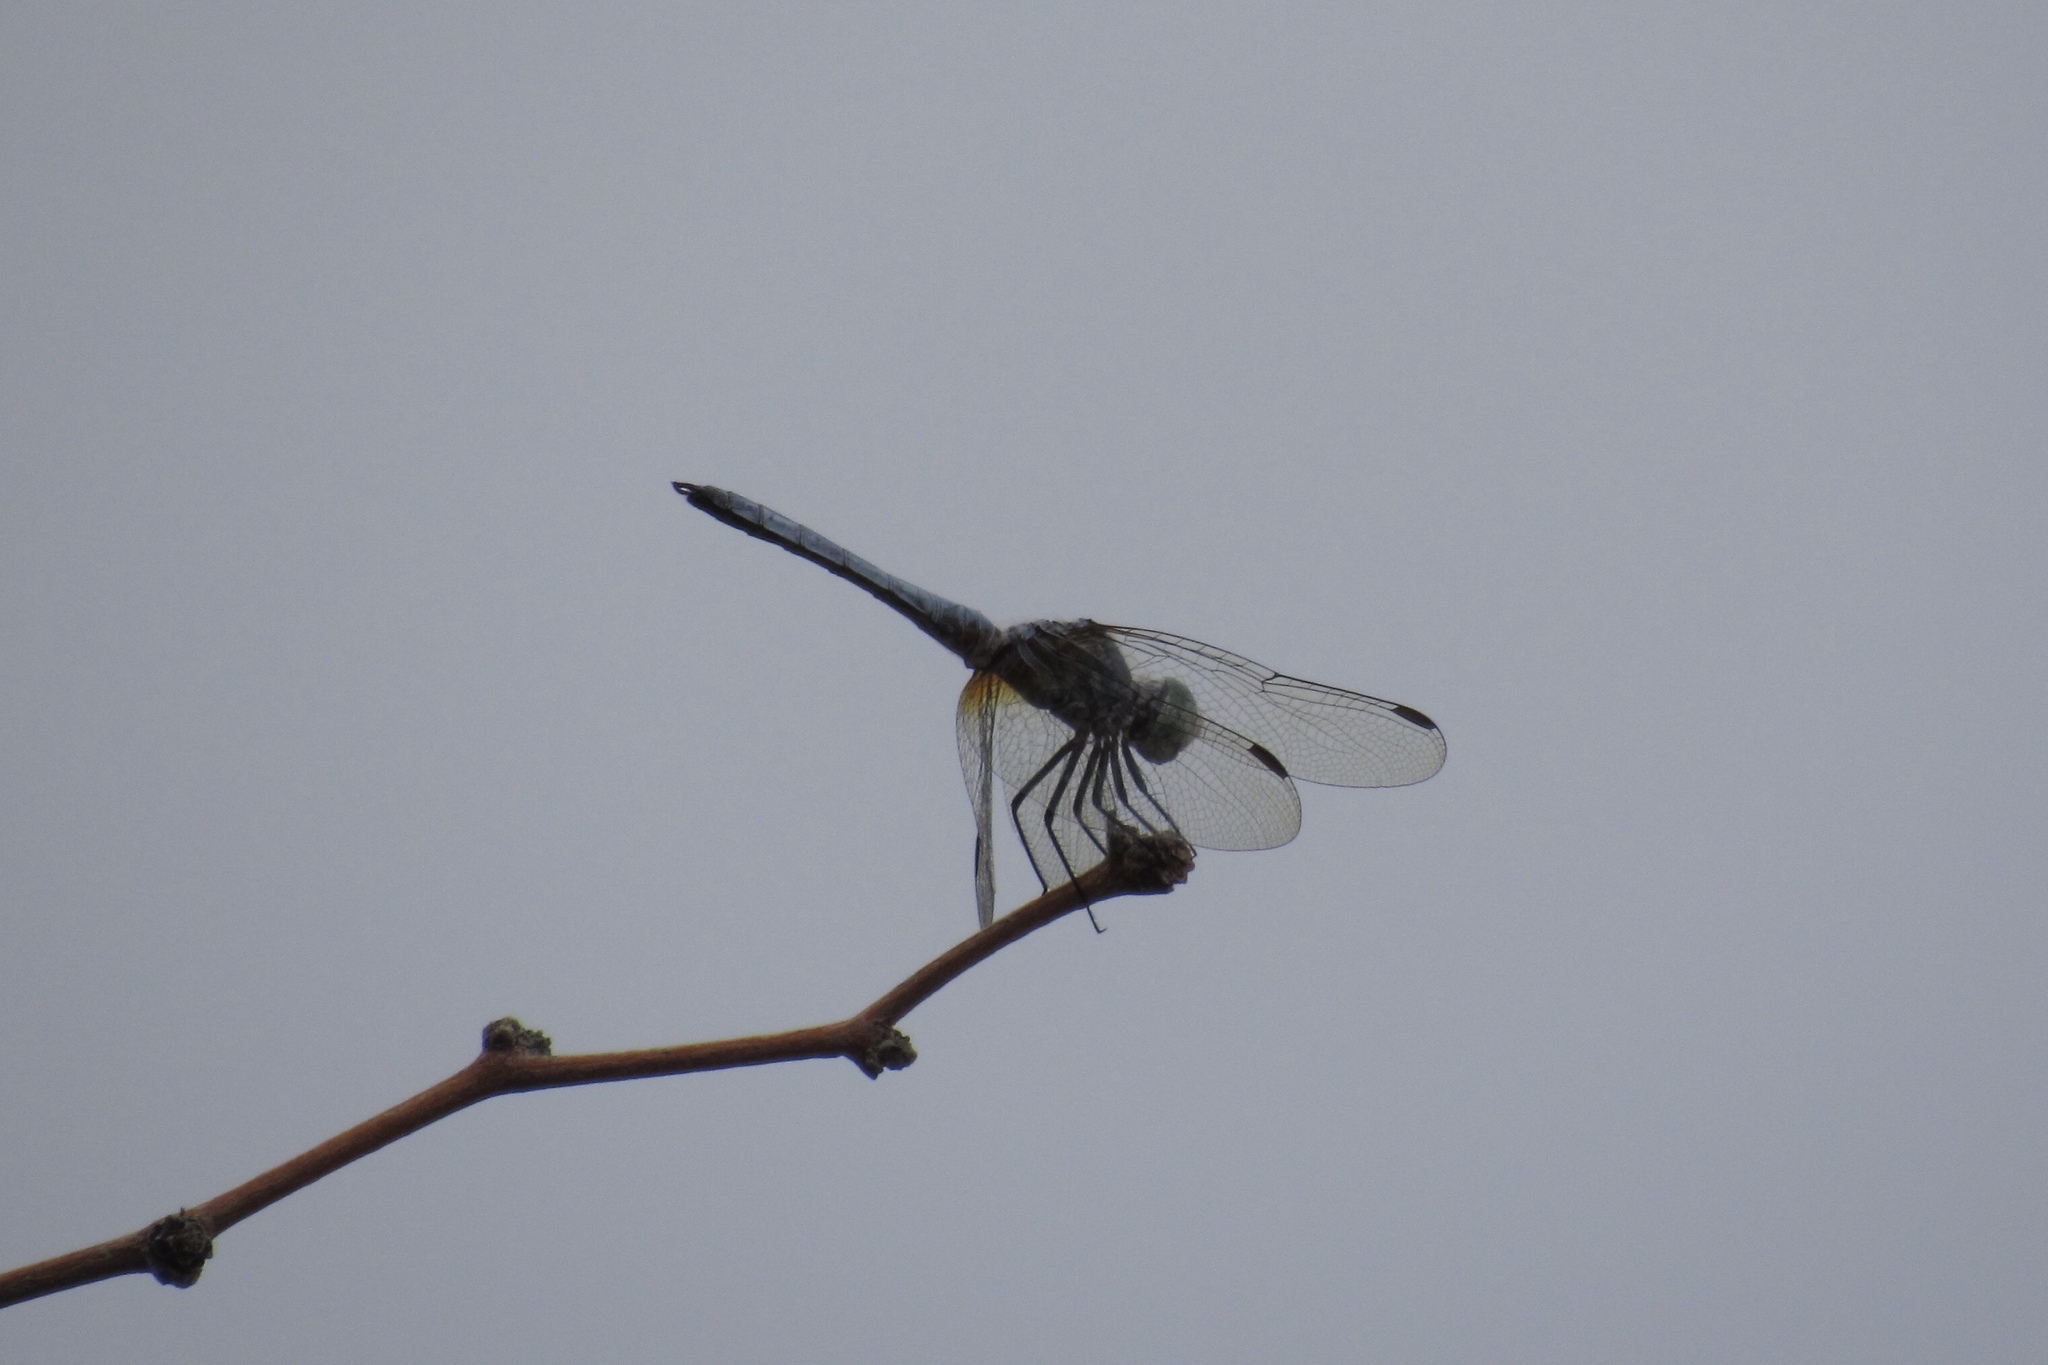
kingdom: Animalia
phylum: Arthropoda
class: Insecta
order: Odonata
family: Libellulidae
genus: Pachydiplax
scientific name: Pachydiplax longipennis
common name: Blue dasher
